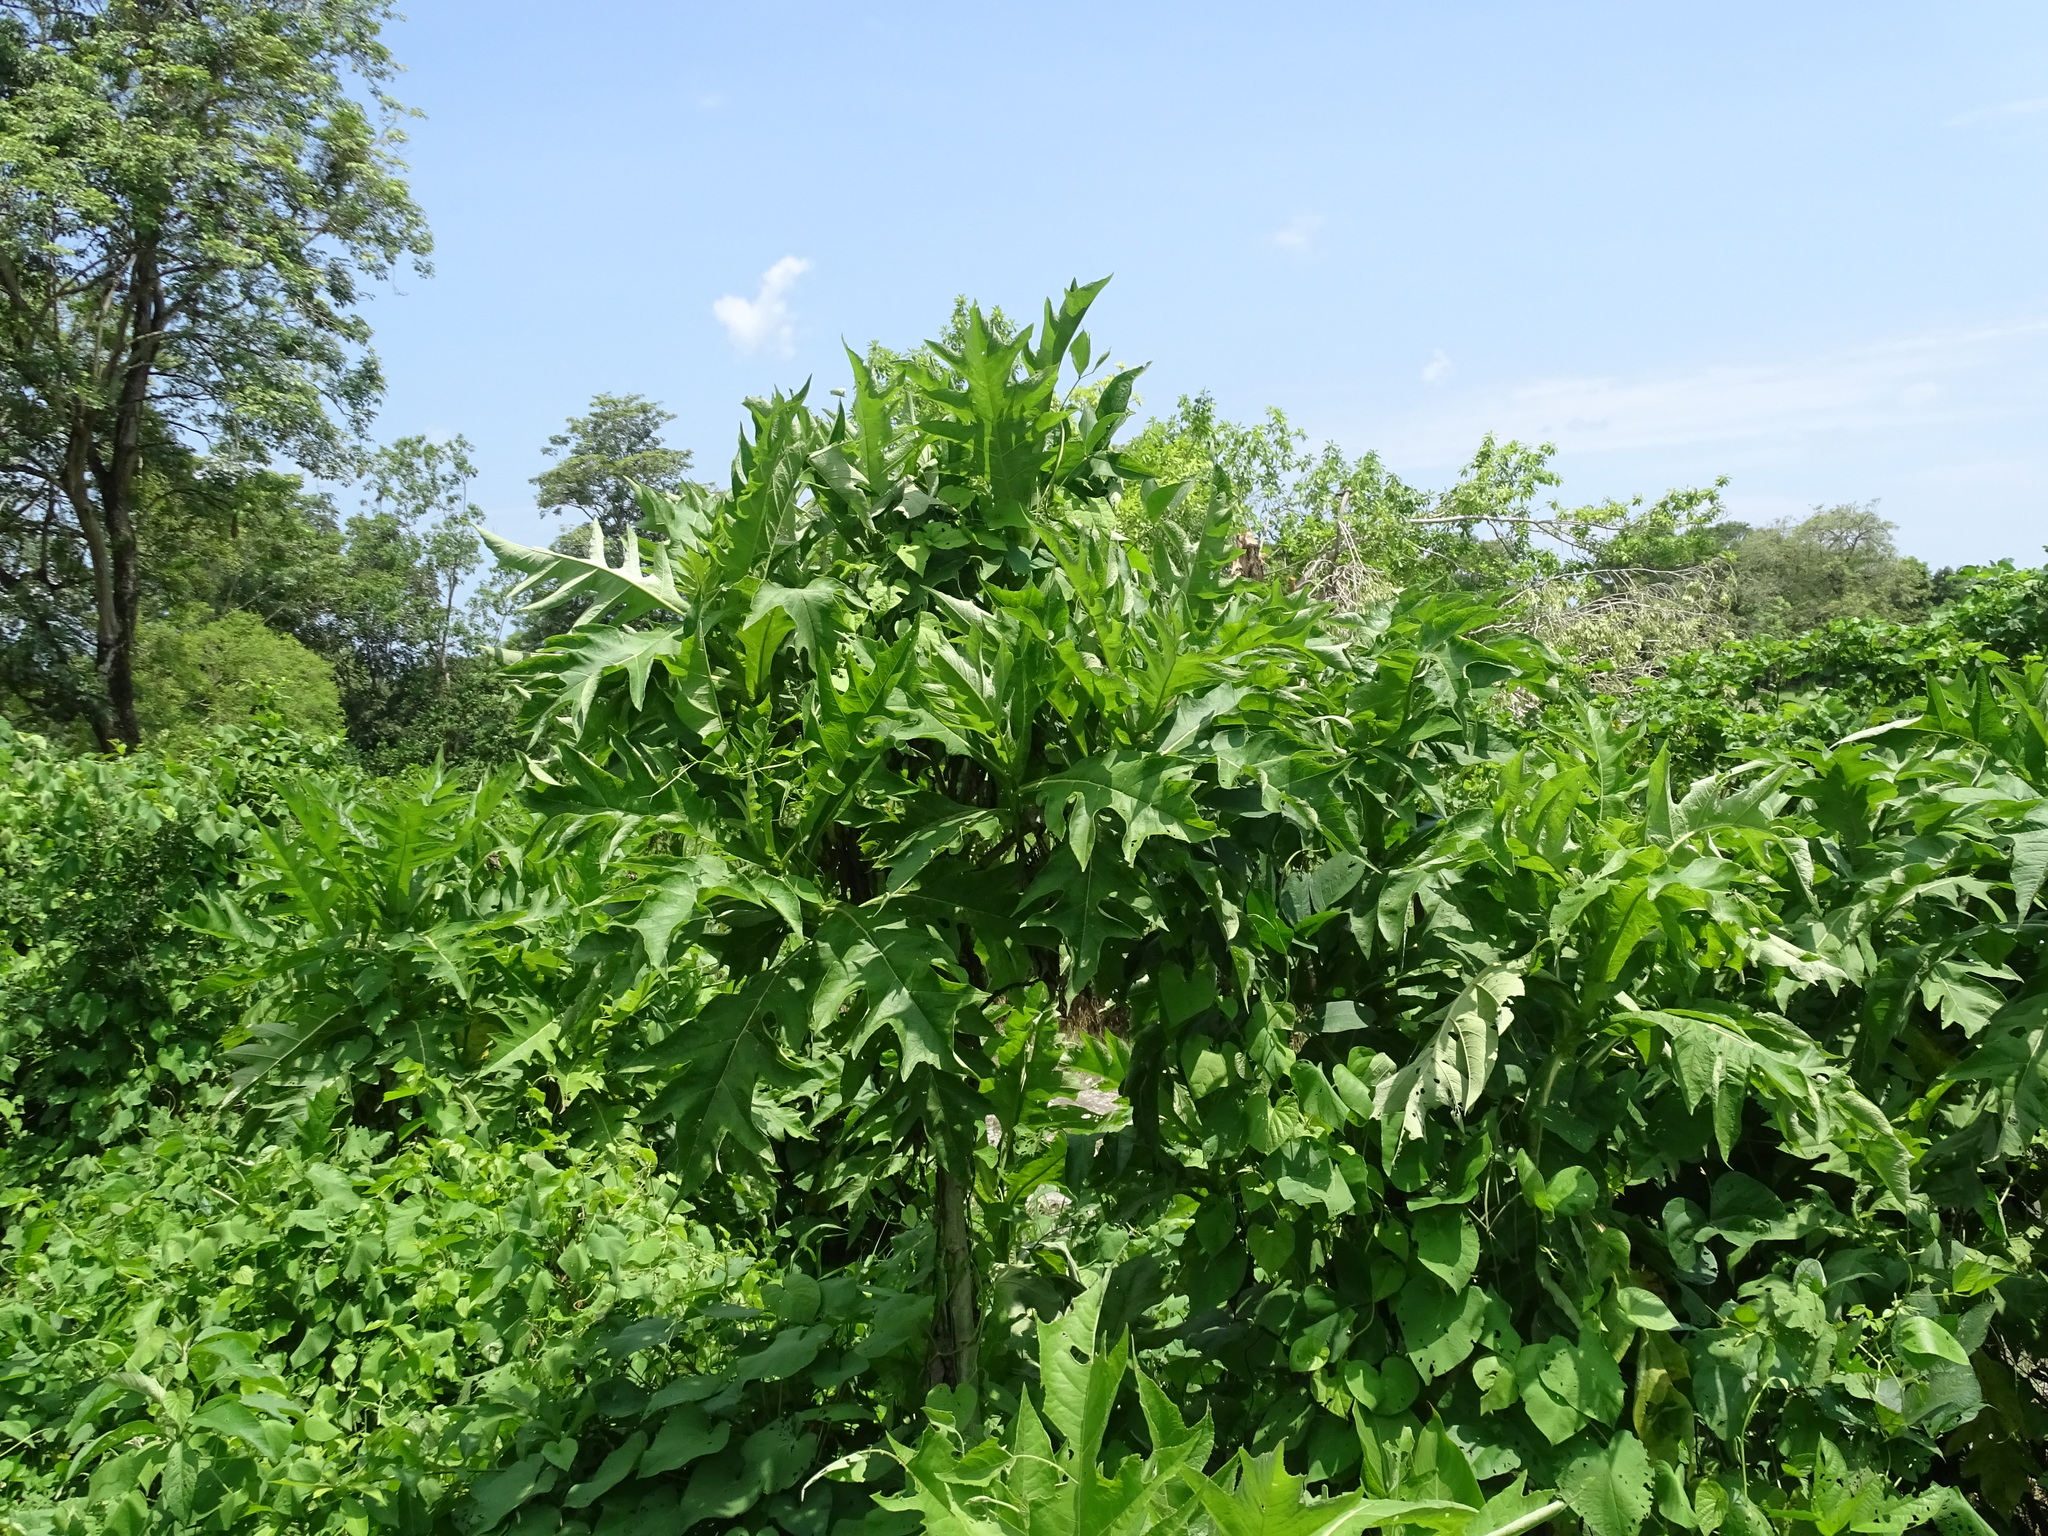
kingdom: Plantae
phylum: Tracheophyta
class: Magnoliopsida
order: Asterales
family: Asteraceae
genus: Verbesina
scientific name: Verbesina turbacensis
